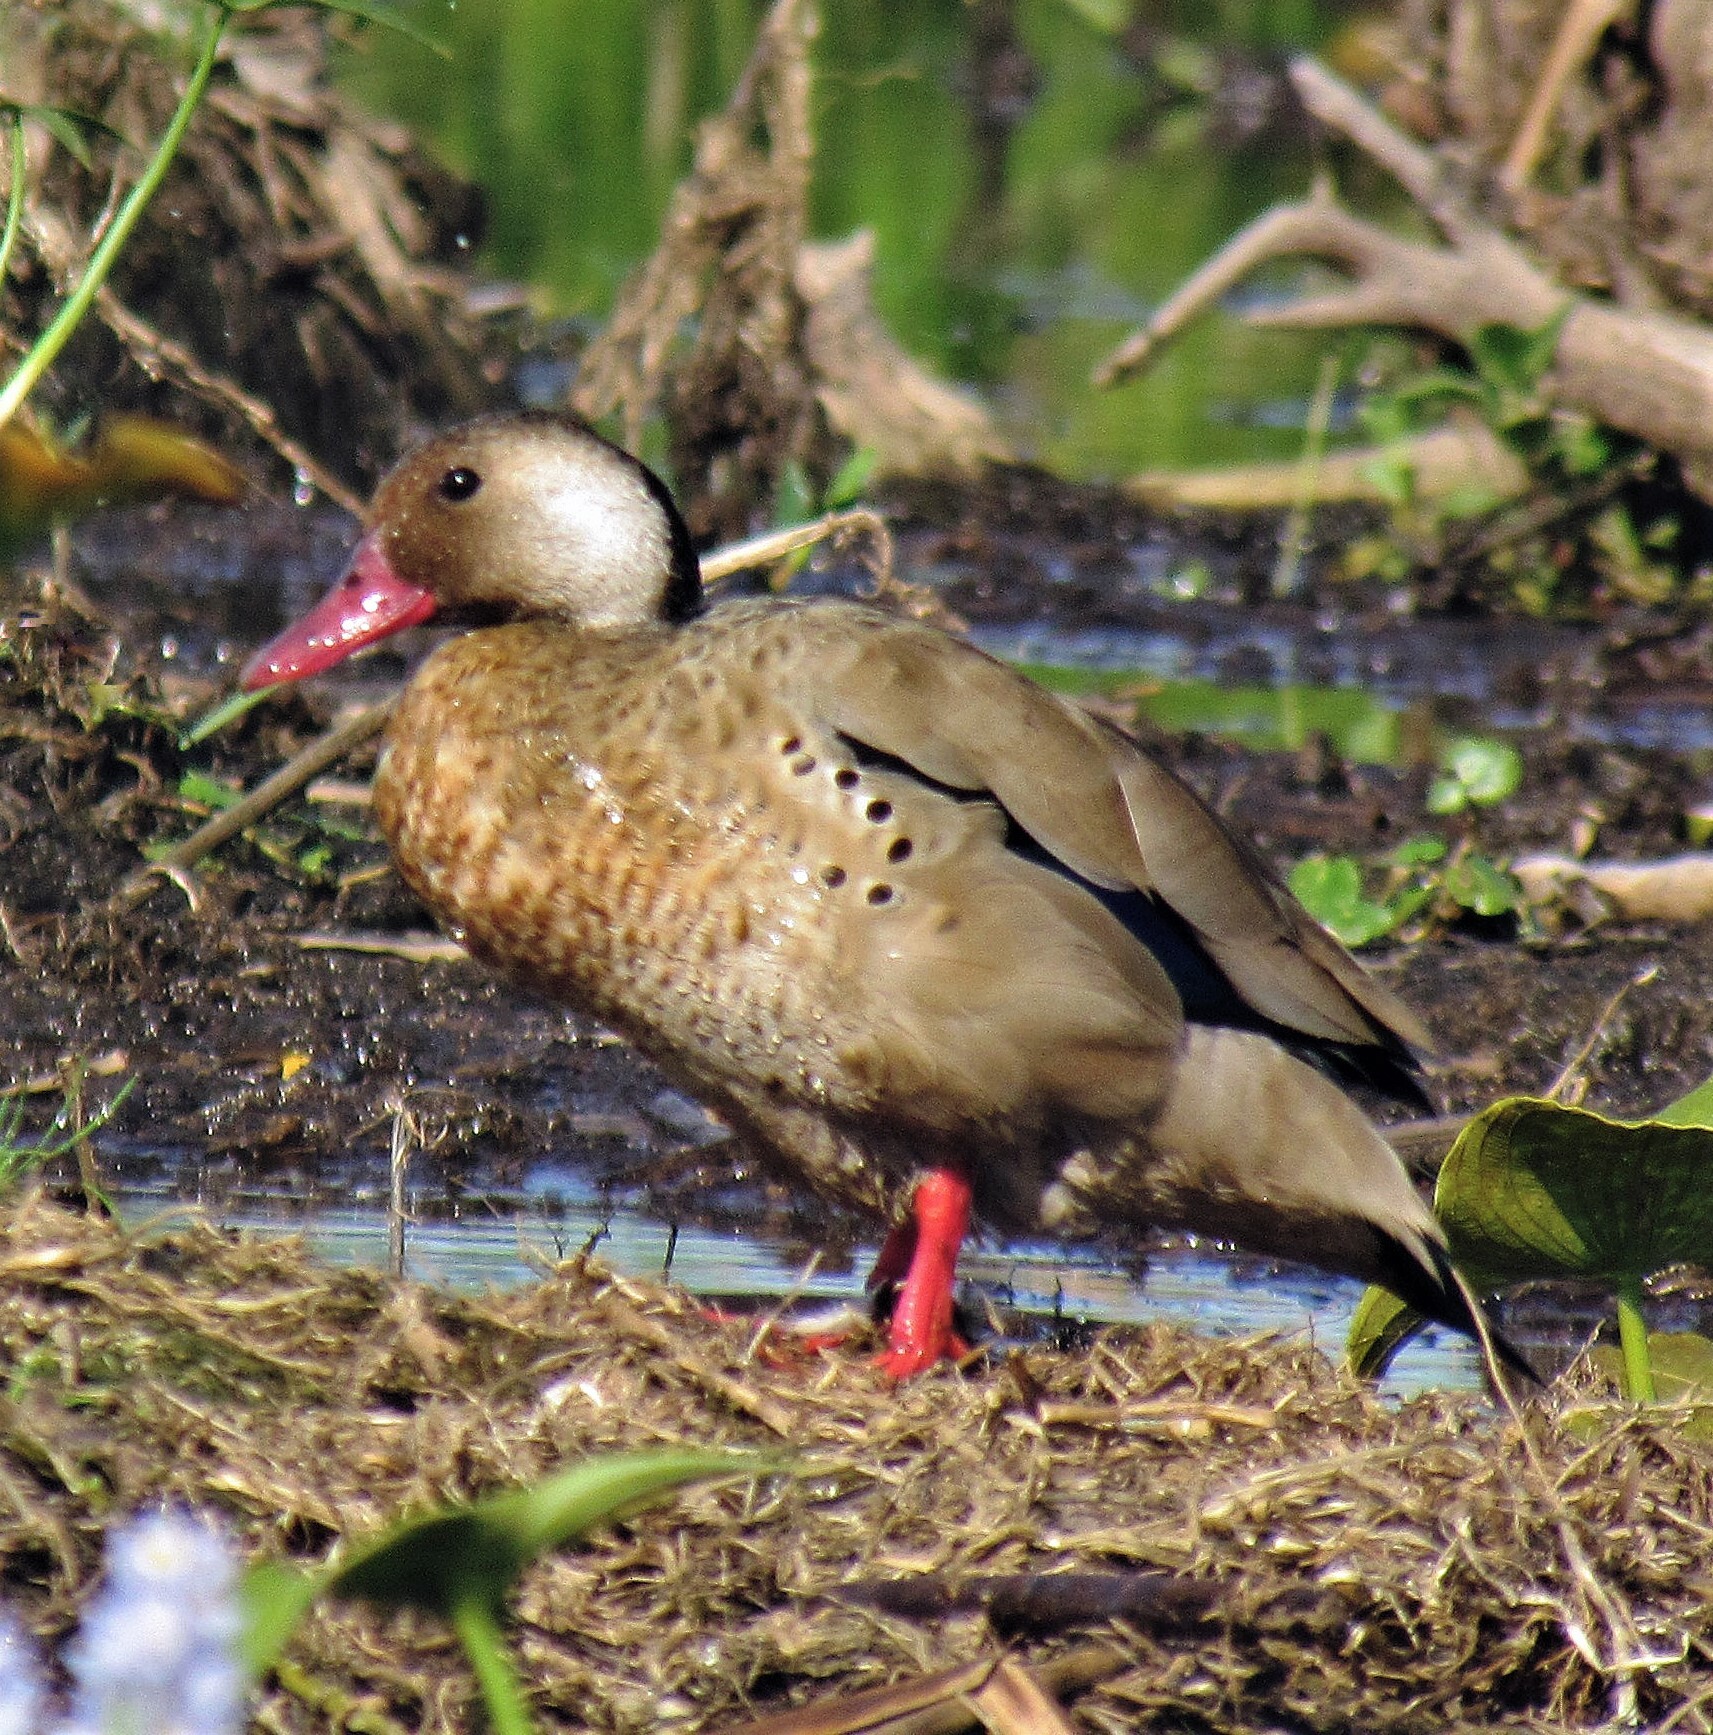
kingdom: Animalia
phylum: Chordata
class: Aves
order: Anseriformes
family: Anatidae
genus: Amazonetta
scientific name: Amazonetta brasiliensis
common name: Brazilian teal
